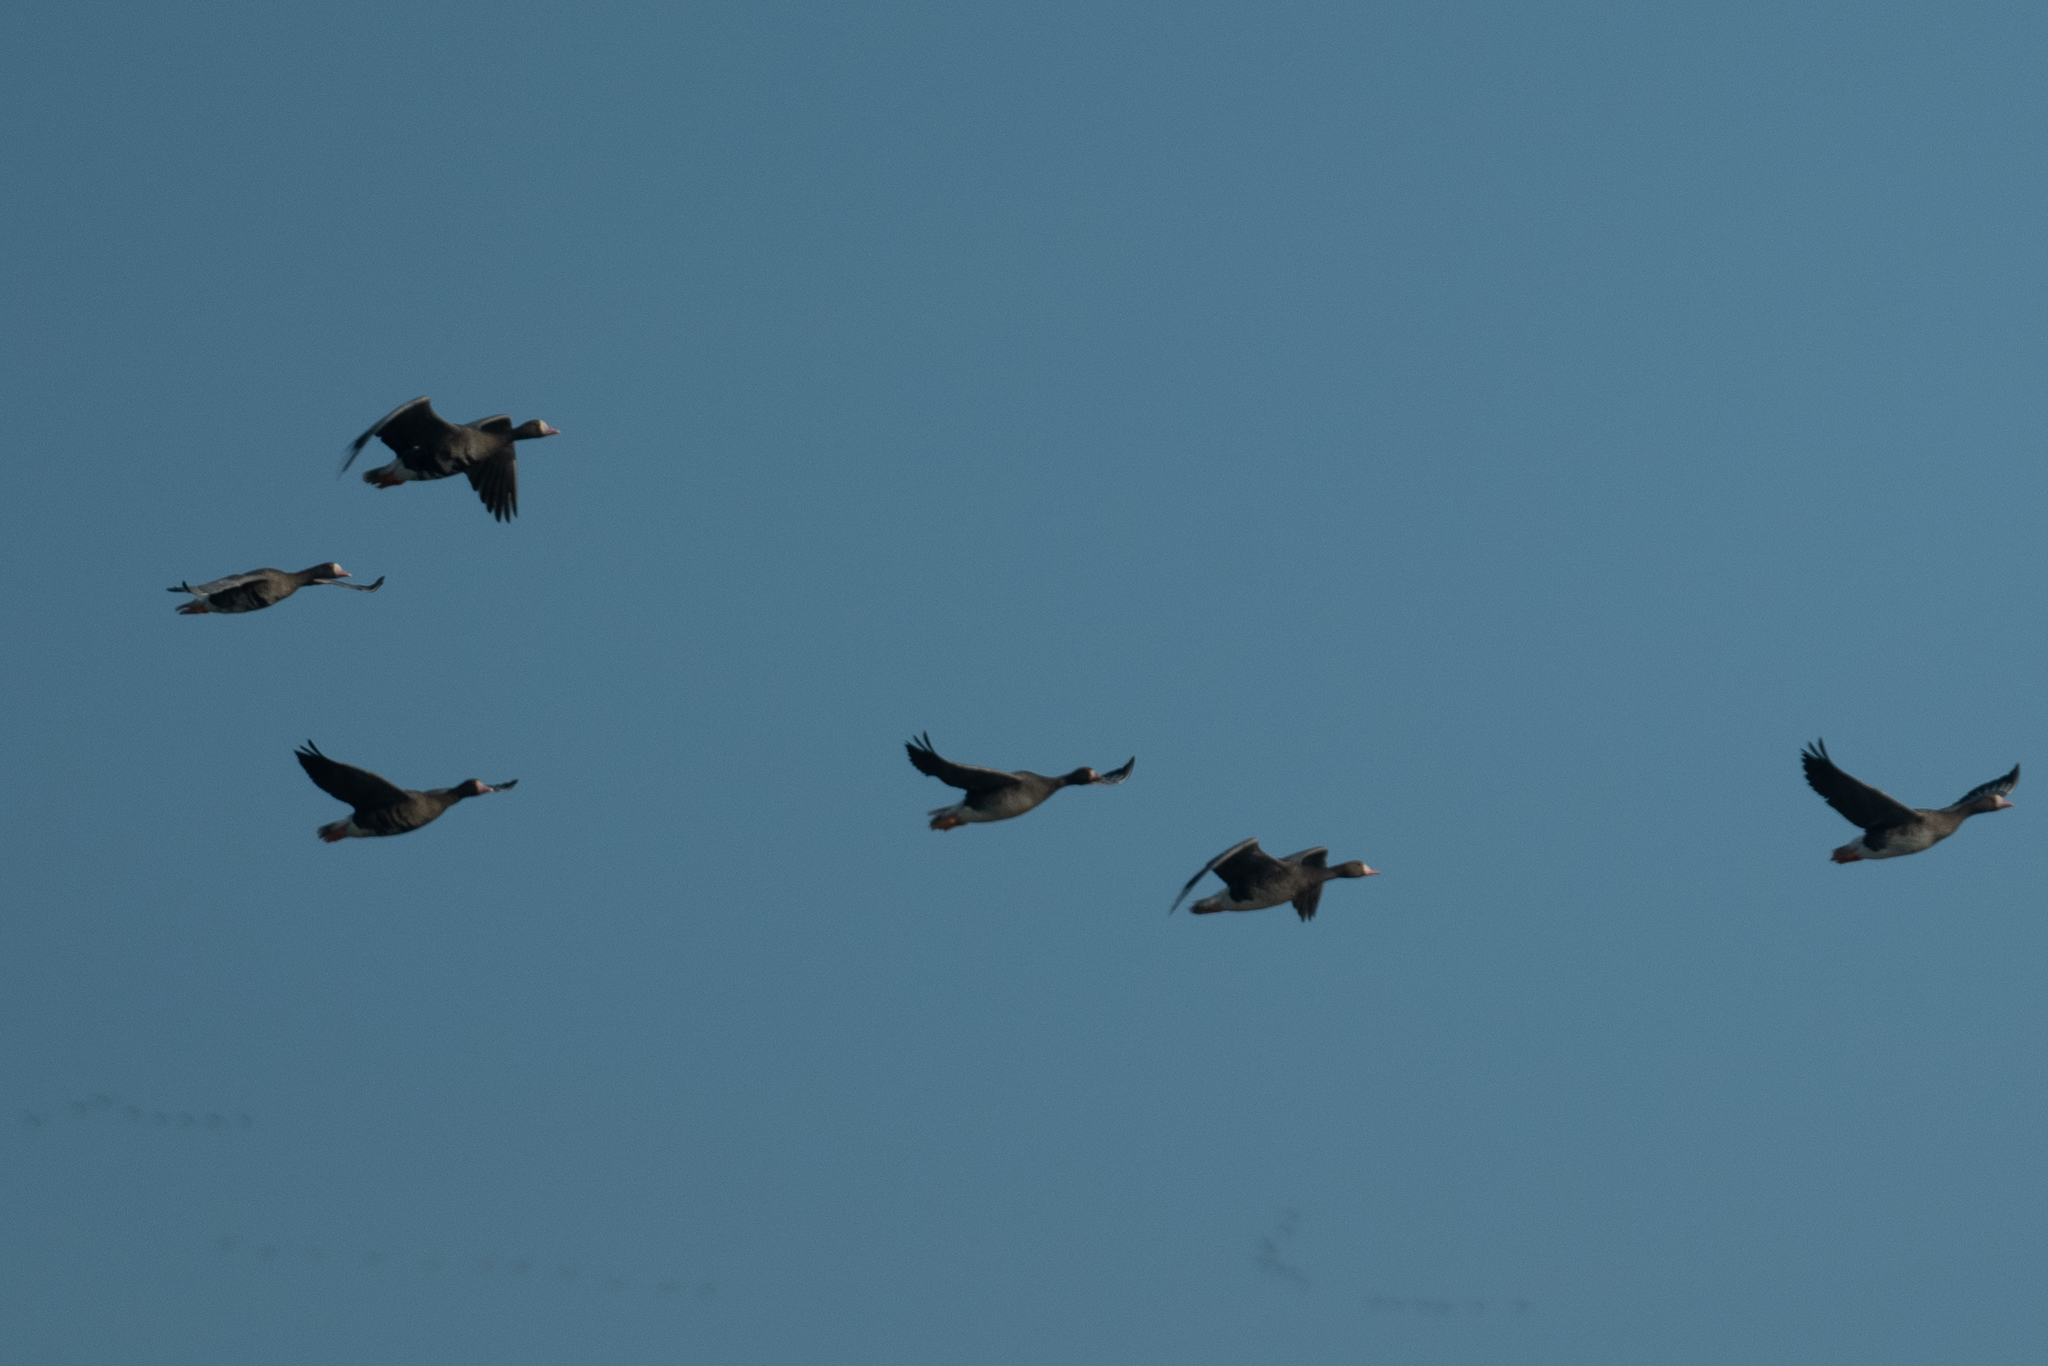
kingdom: Animalia
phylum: Chordata
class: Aves
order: Anseriformes
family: Anatidae
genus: Anser
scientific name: Anser albifrons
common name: Greater white-fronted goose
